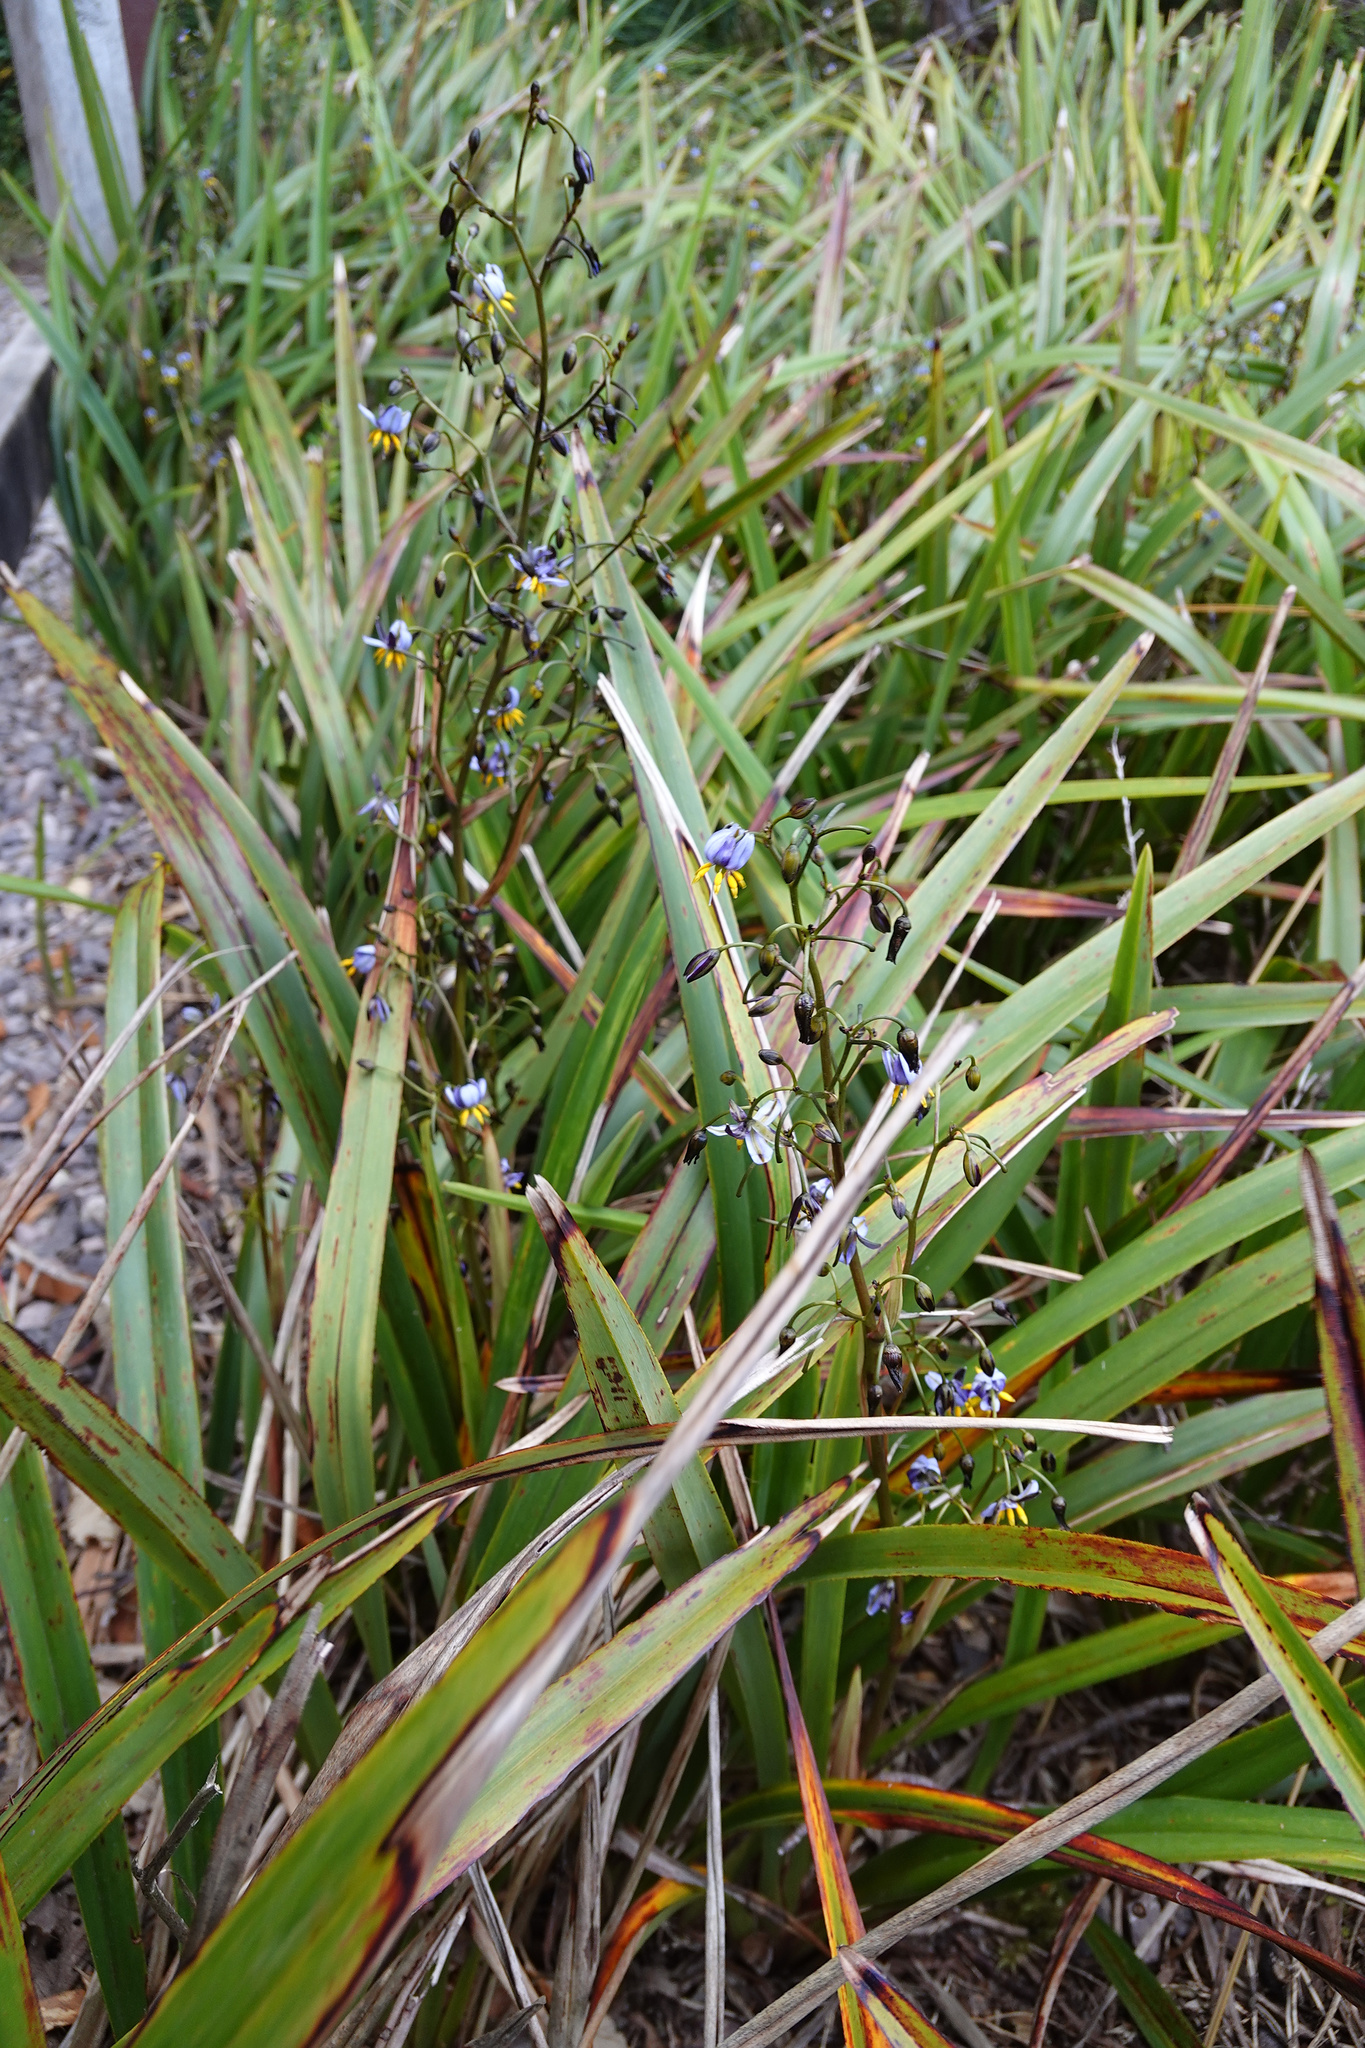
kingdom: Plantae
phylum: Tracheophyta
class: Liliopsida
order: Asparagales
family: Asphodelaceae
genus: Dianella
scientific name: Dianella tasmanica
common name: Tasman flax-lily
